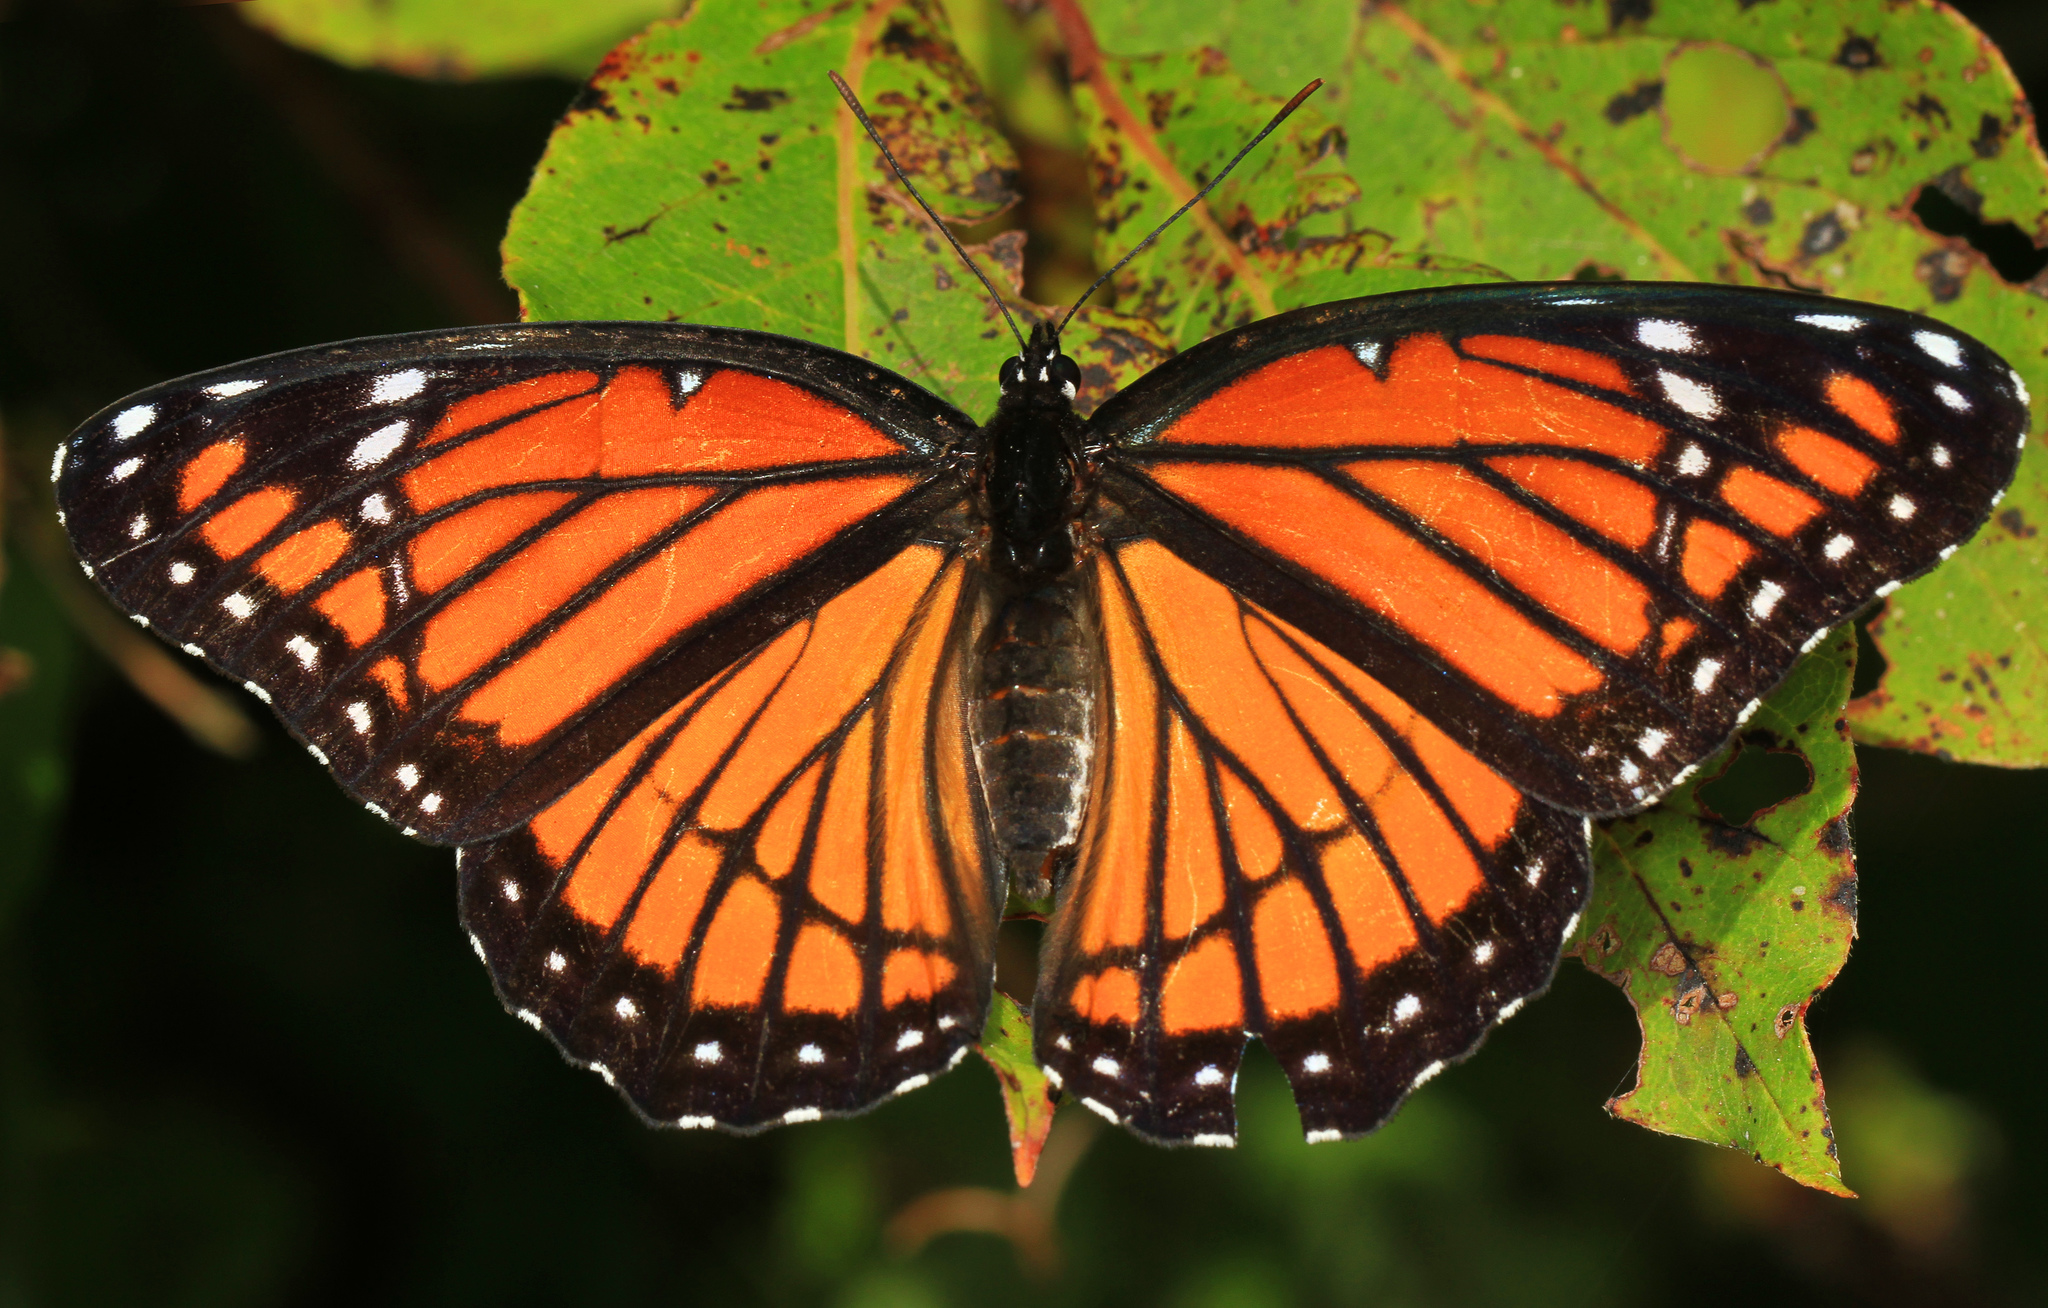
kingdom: Animalia
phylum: Arthropoda
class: Insecta
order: Lepidoptera
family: Nymphalidae
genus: Limenitis
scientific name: Limenitis archippus
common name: Viceroy
